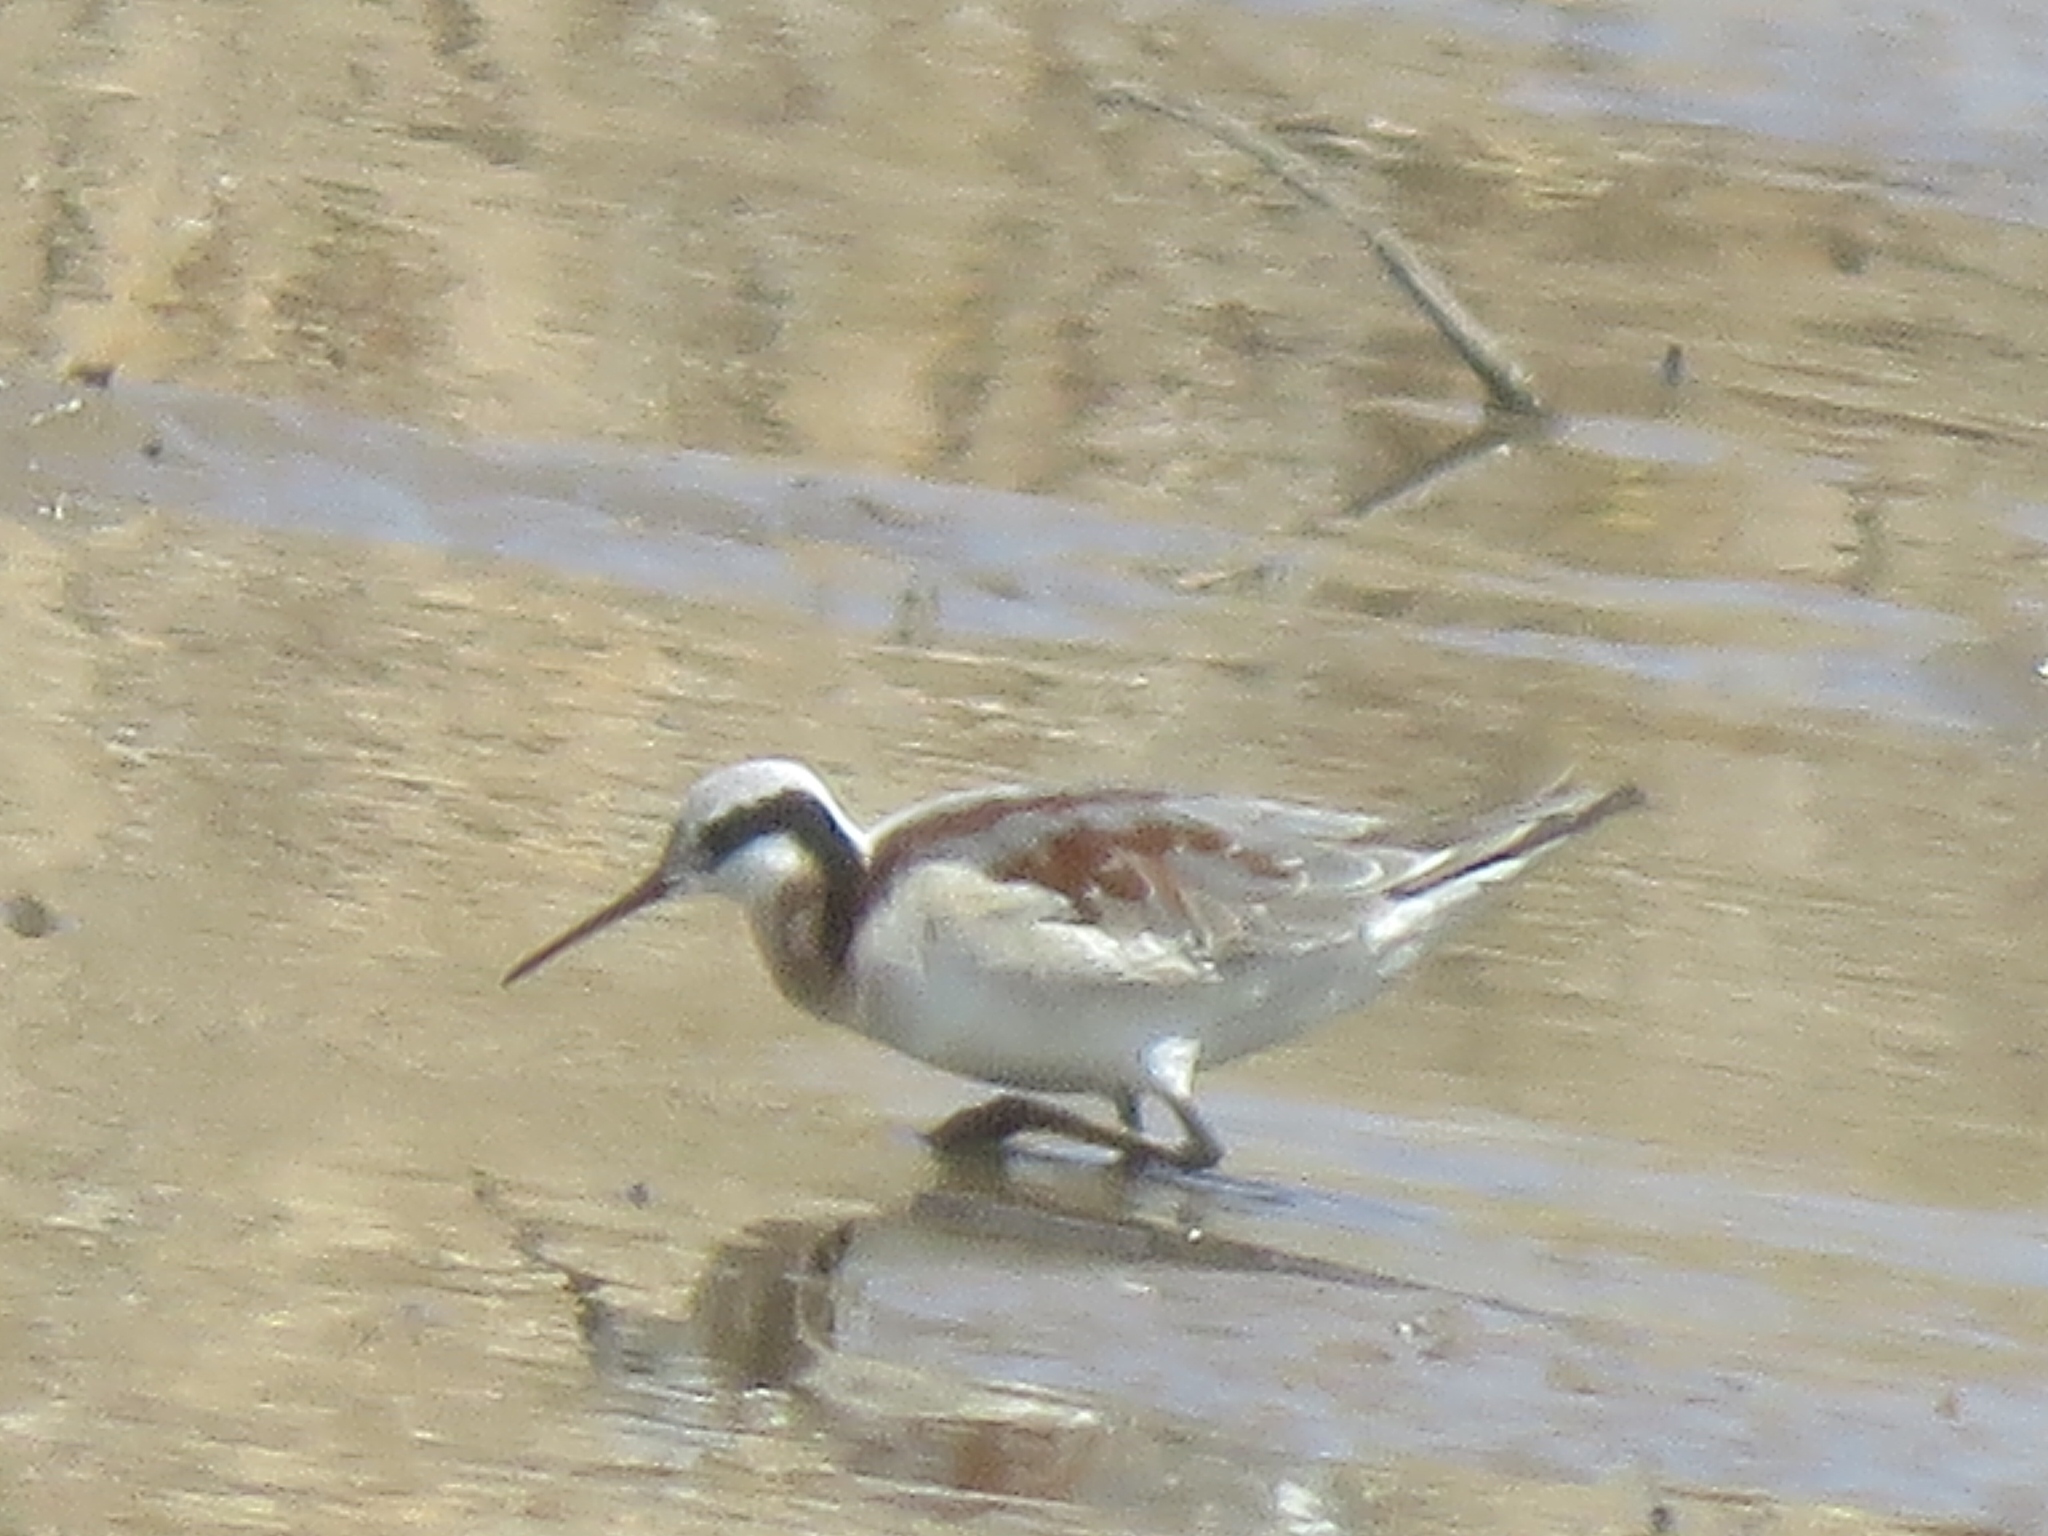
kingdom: Animalia
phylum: Chordata
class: Aves
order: Charadriiformes
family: Scolopacidae
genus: Phalaropus
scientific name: Phalaropus tricolor
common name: Wilson's phalarope
